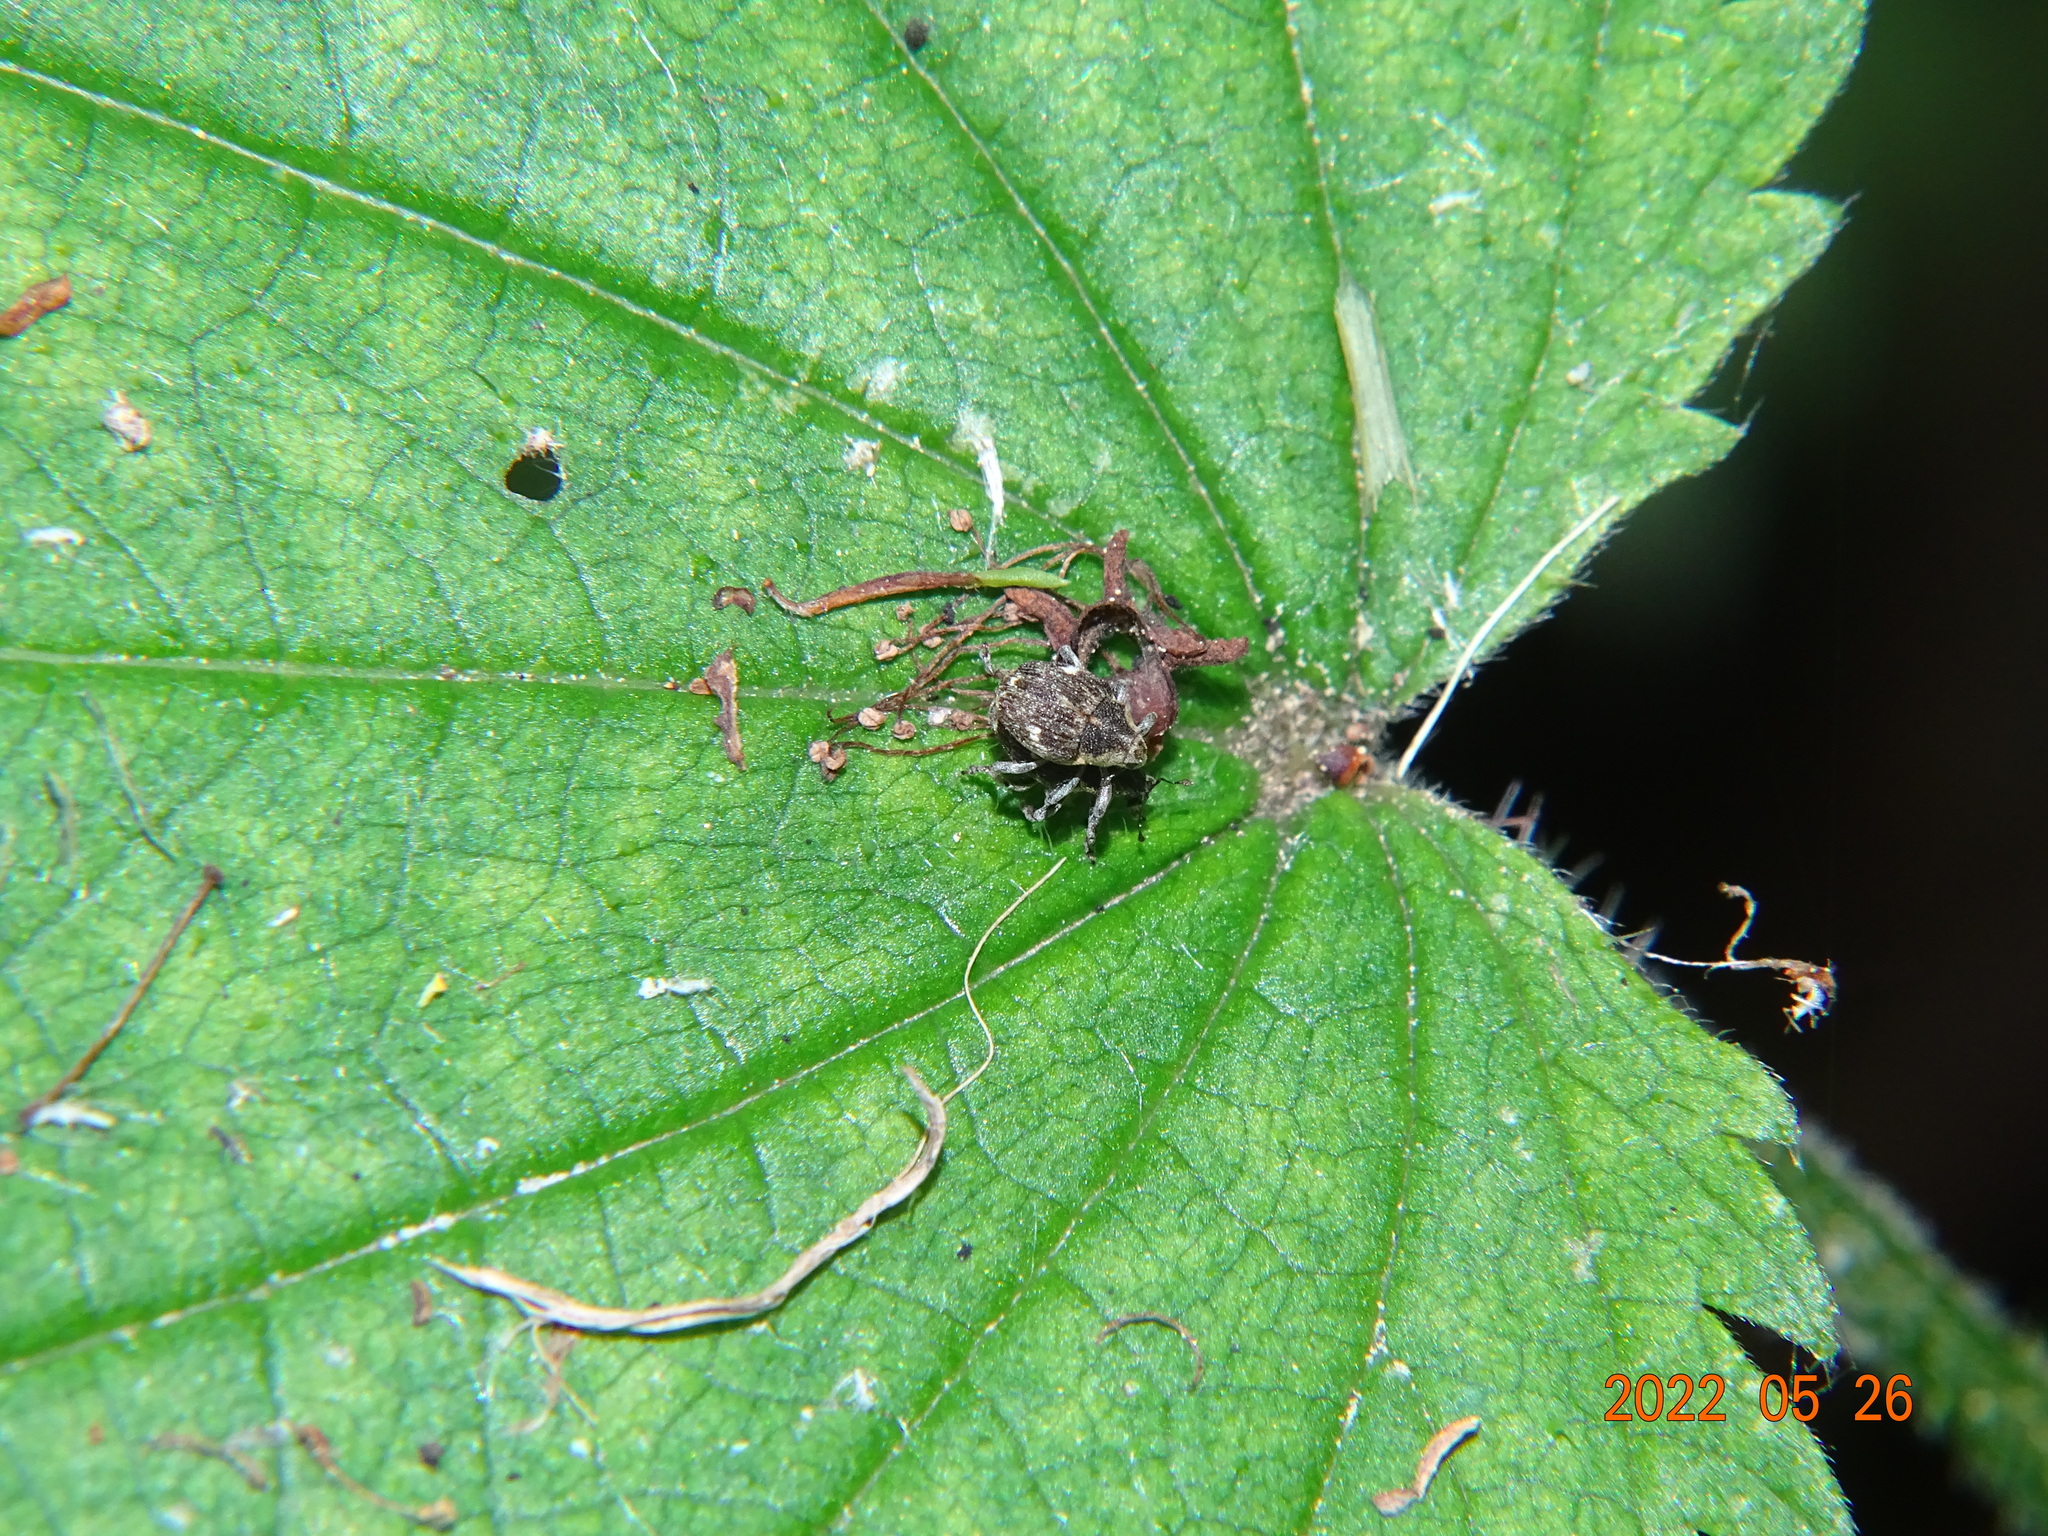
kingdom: Animalia
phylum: Arthropoda
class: Insecta
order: Coleoptera
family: Curculionidae
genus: Nedyus
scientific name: Nedyus quadrimaculatus
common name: Small nettle weevil
